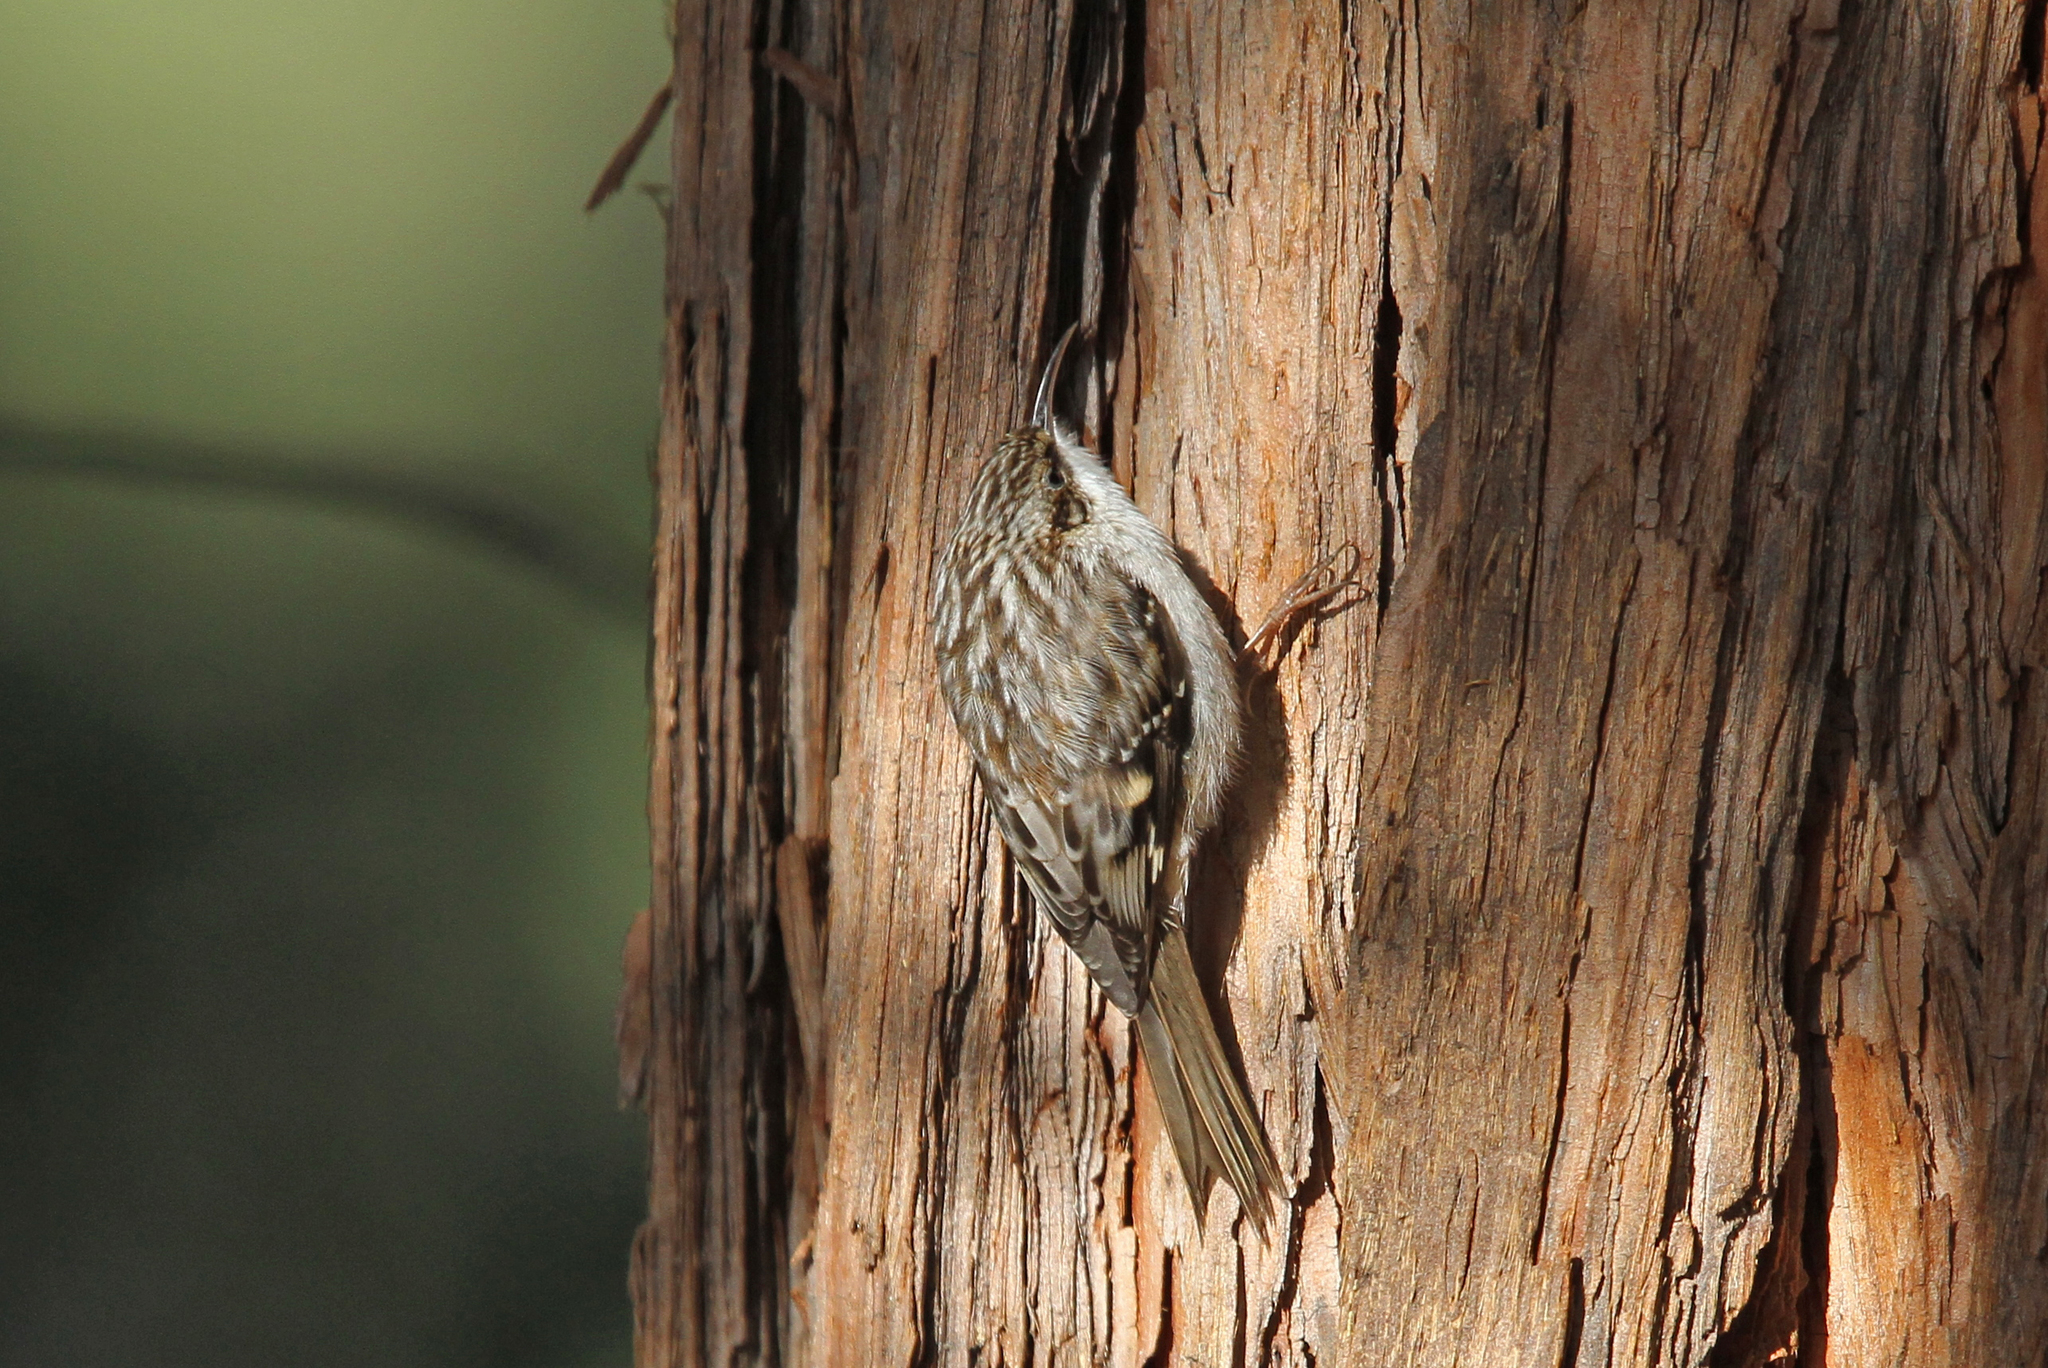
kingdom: Animalia
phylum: Chordata
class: Aves
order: Passeriformes
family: Certhiidae
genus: Certhia
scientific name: Certhia americana
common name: Brown creeper
